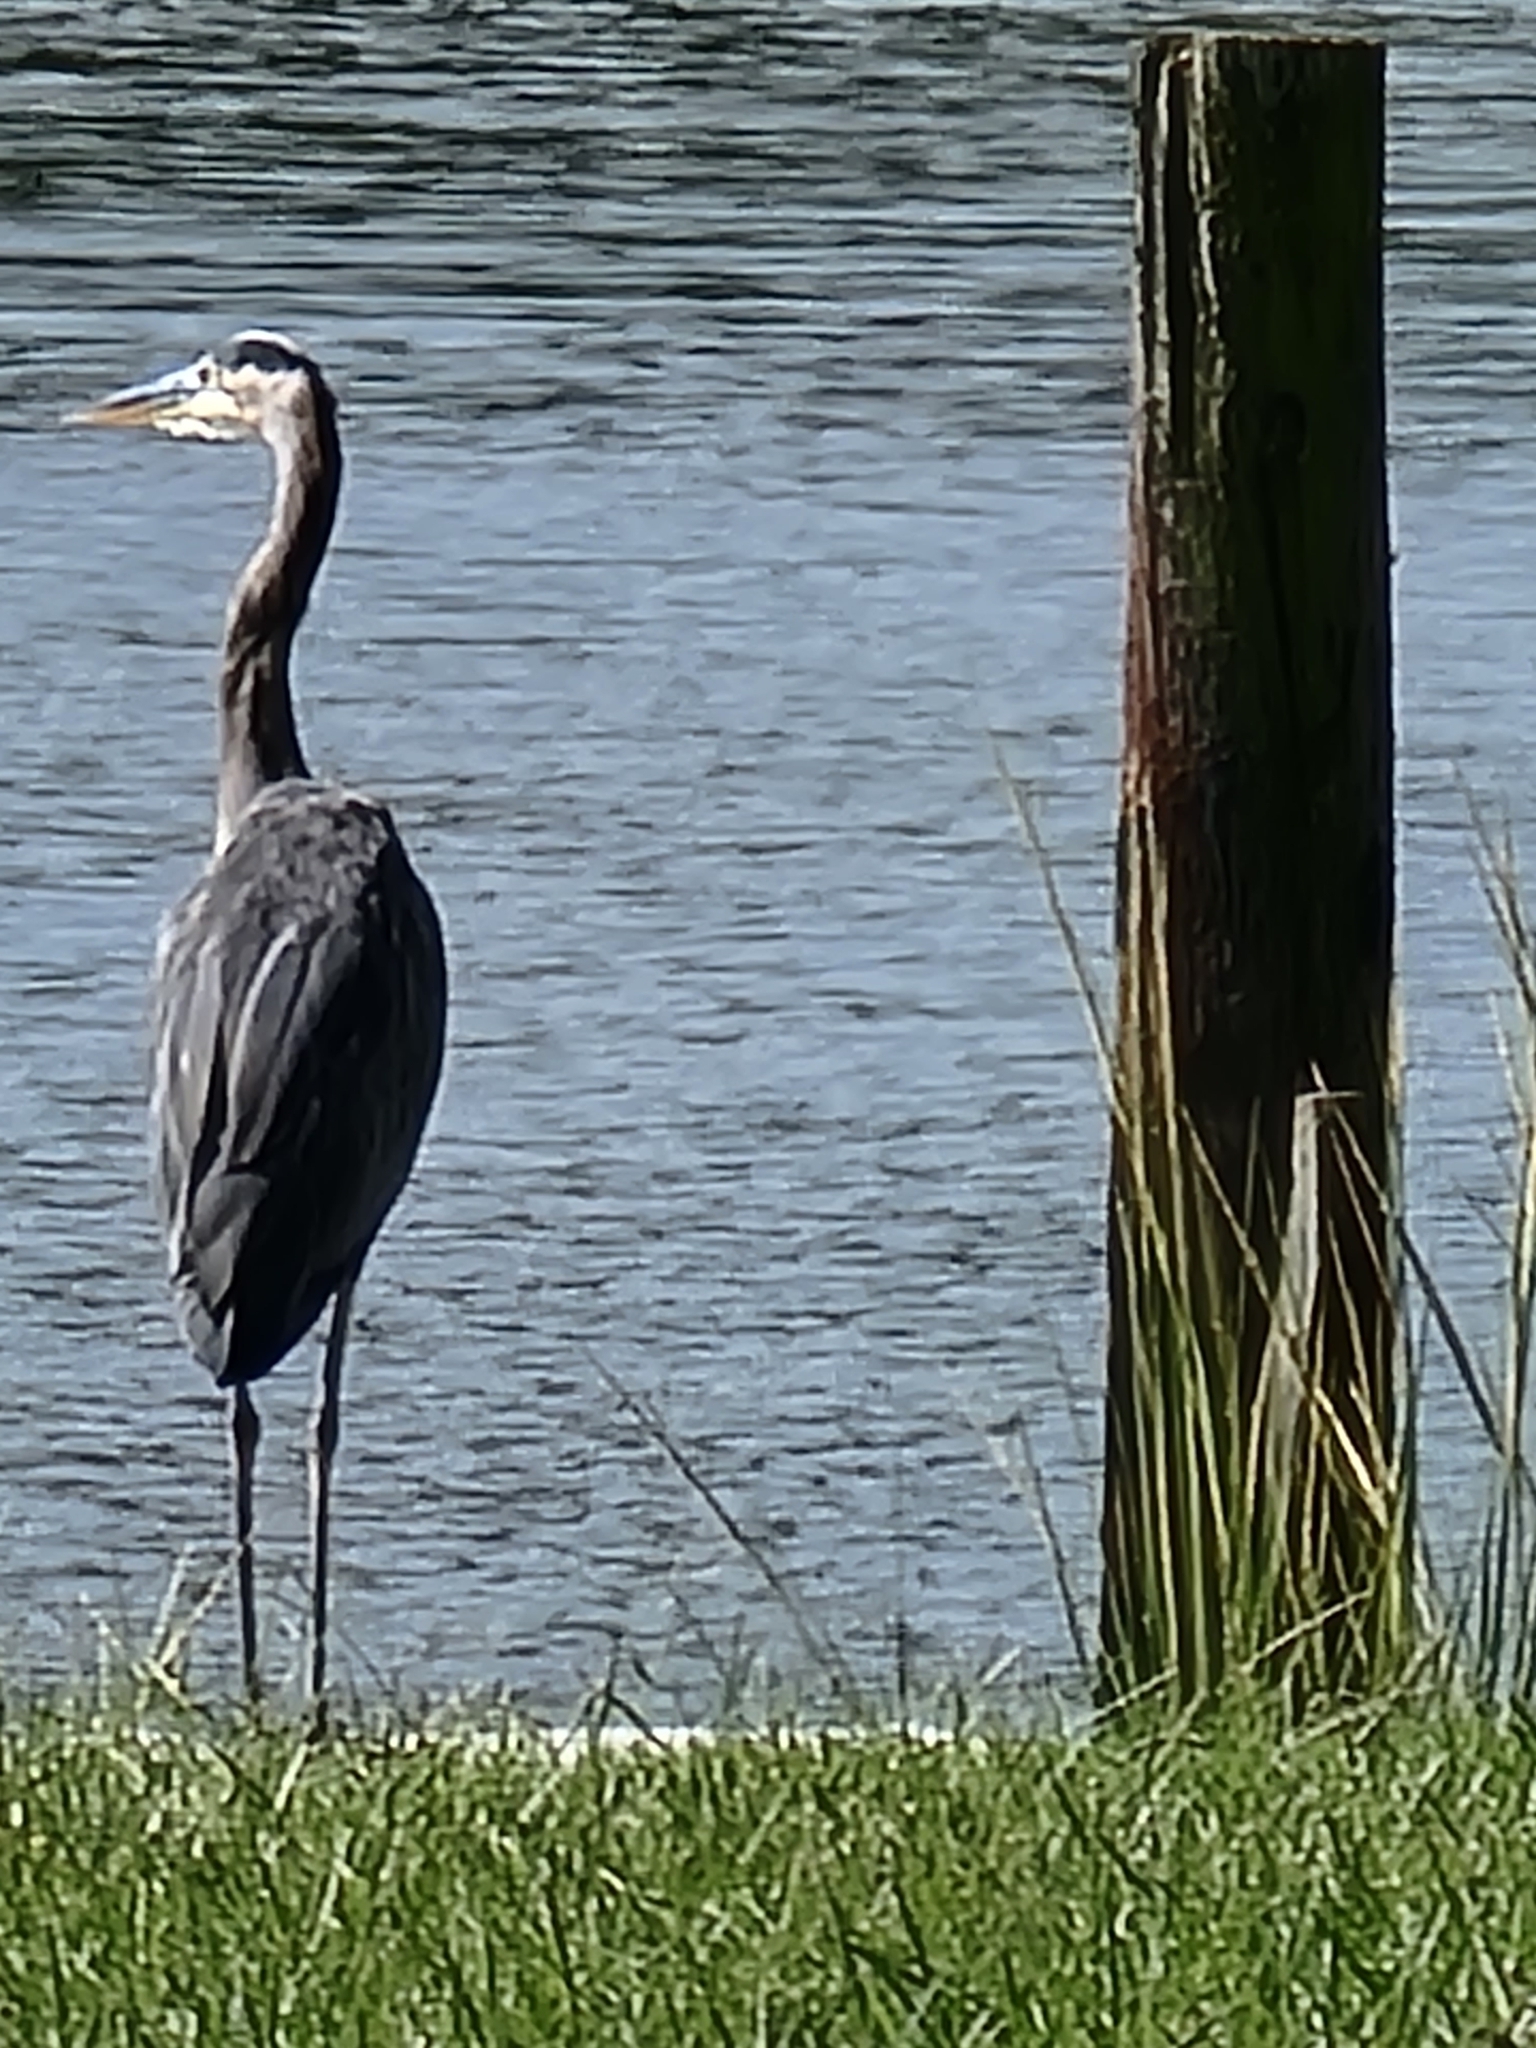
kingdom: Animalia
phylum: Chordata
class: Aves
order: Pelecaniformes
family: Ardeidae
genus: Ardea
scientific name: Ardea herodias
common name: Great blue heron
